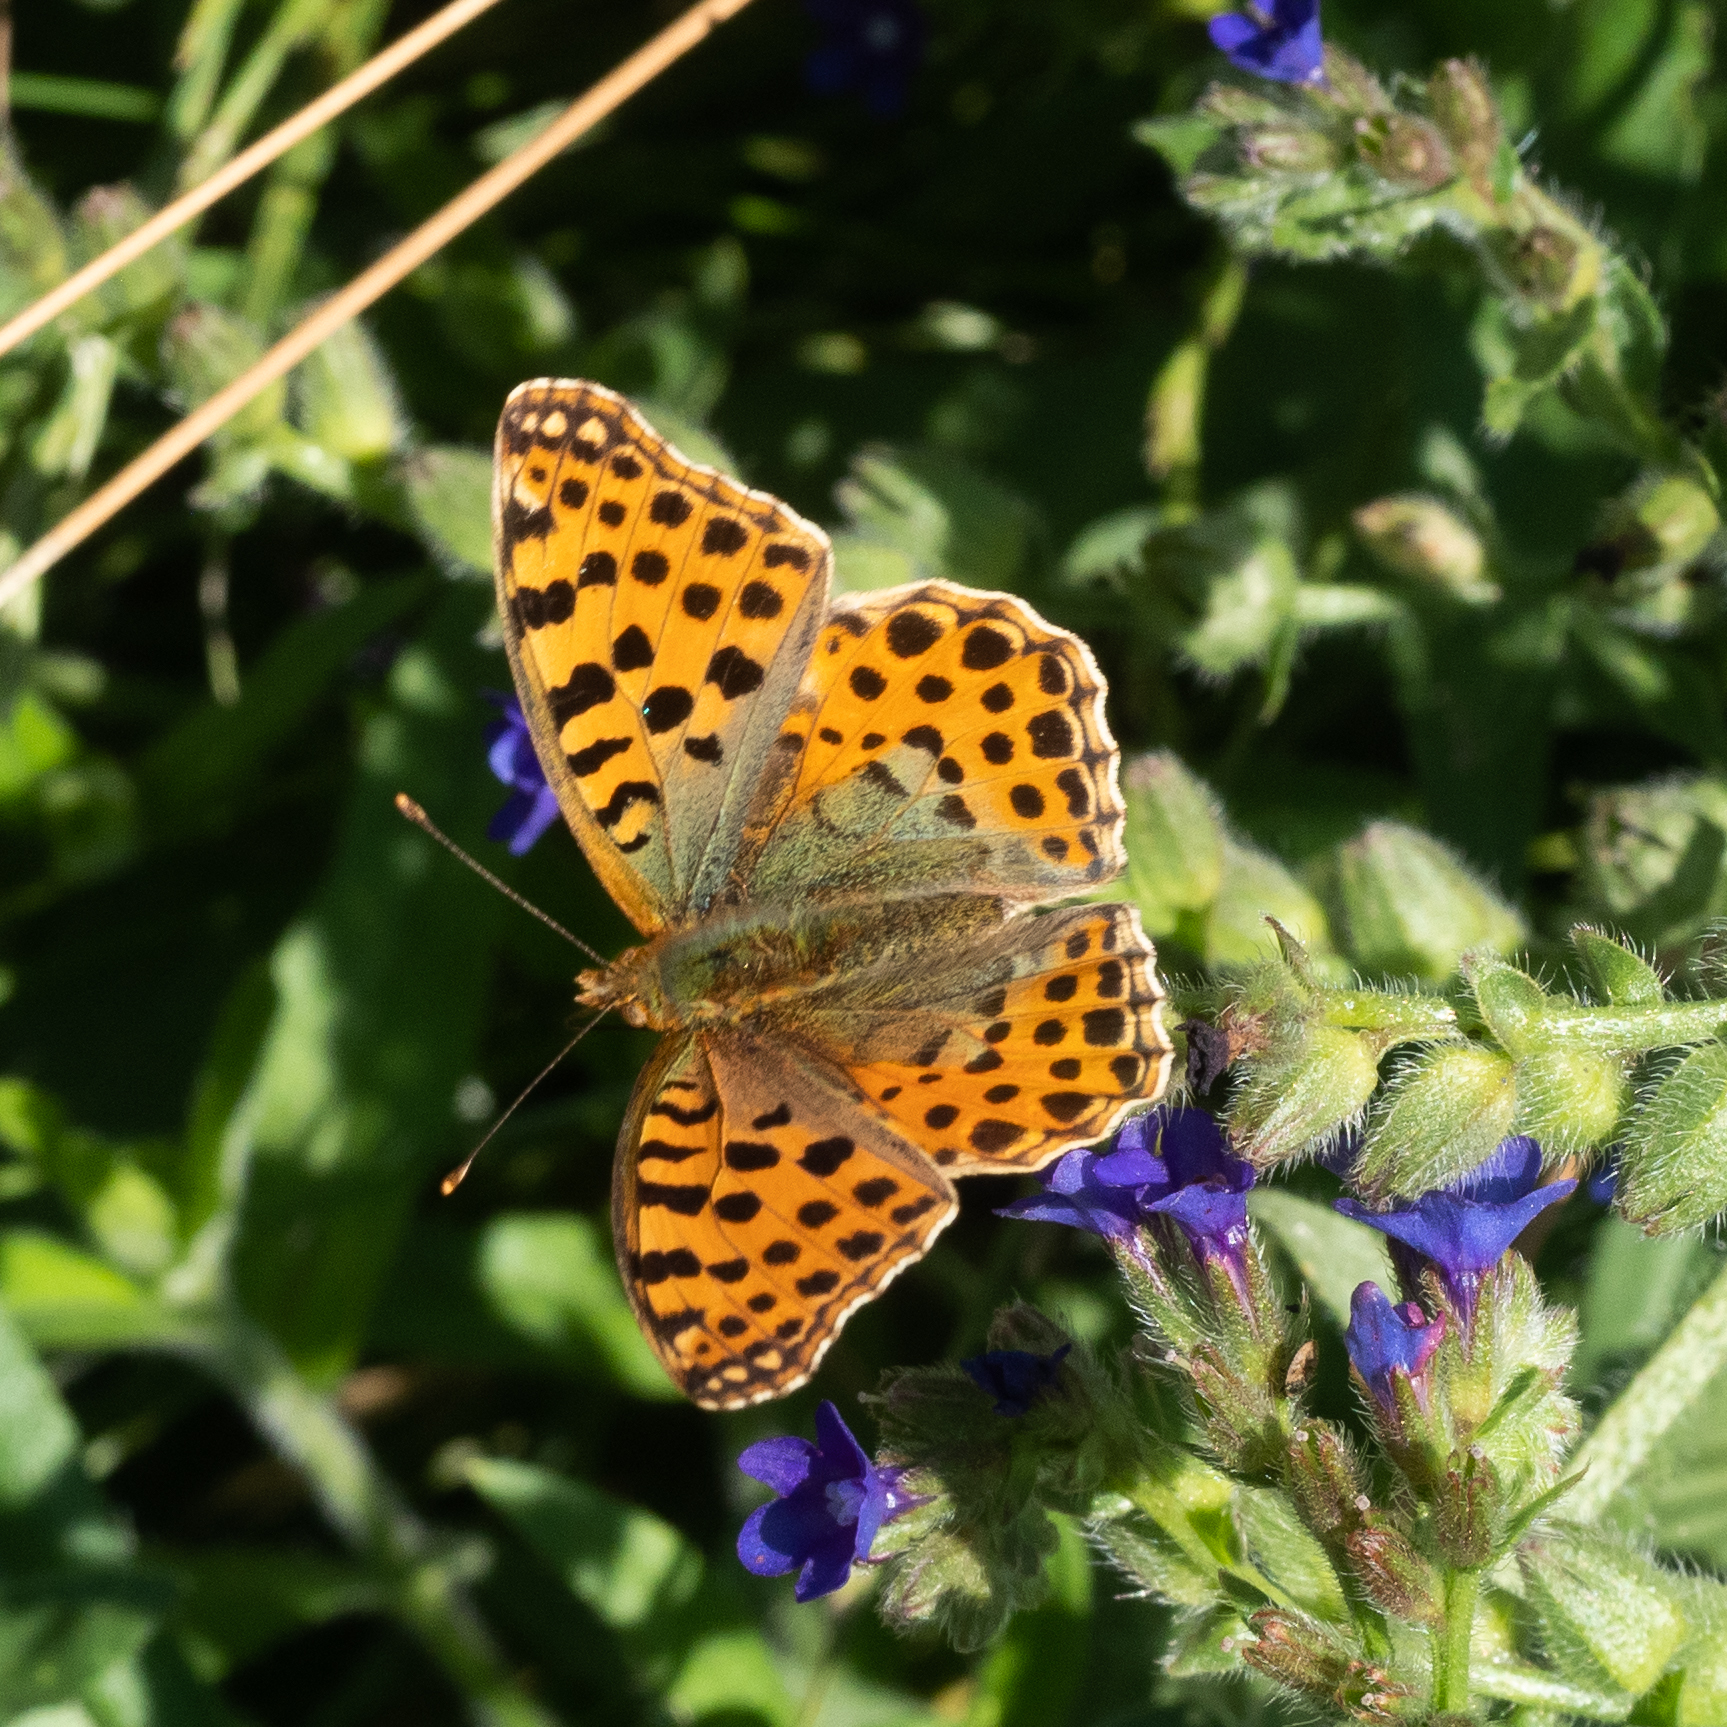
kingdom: Animalia
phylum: Arthropoda
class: Insecta
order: Lepidoptera
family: Nymphalidae
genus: Issoria
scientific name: Issoria lathonia
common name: Queen of spain fritillary
